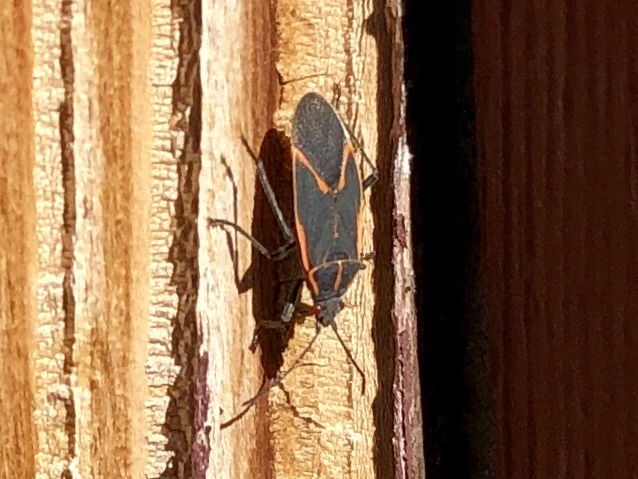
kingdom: Animalia
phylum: Arthropoda
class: Insecta
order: Hemiptera
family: Rhopalidae
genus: Boisea
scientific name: Boisea trivittata
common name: Boxelder bug
